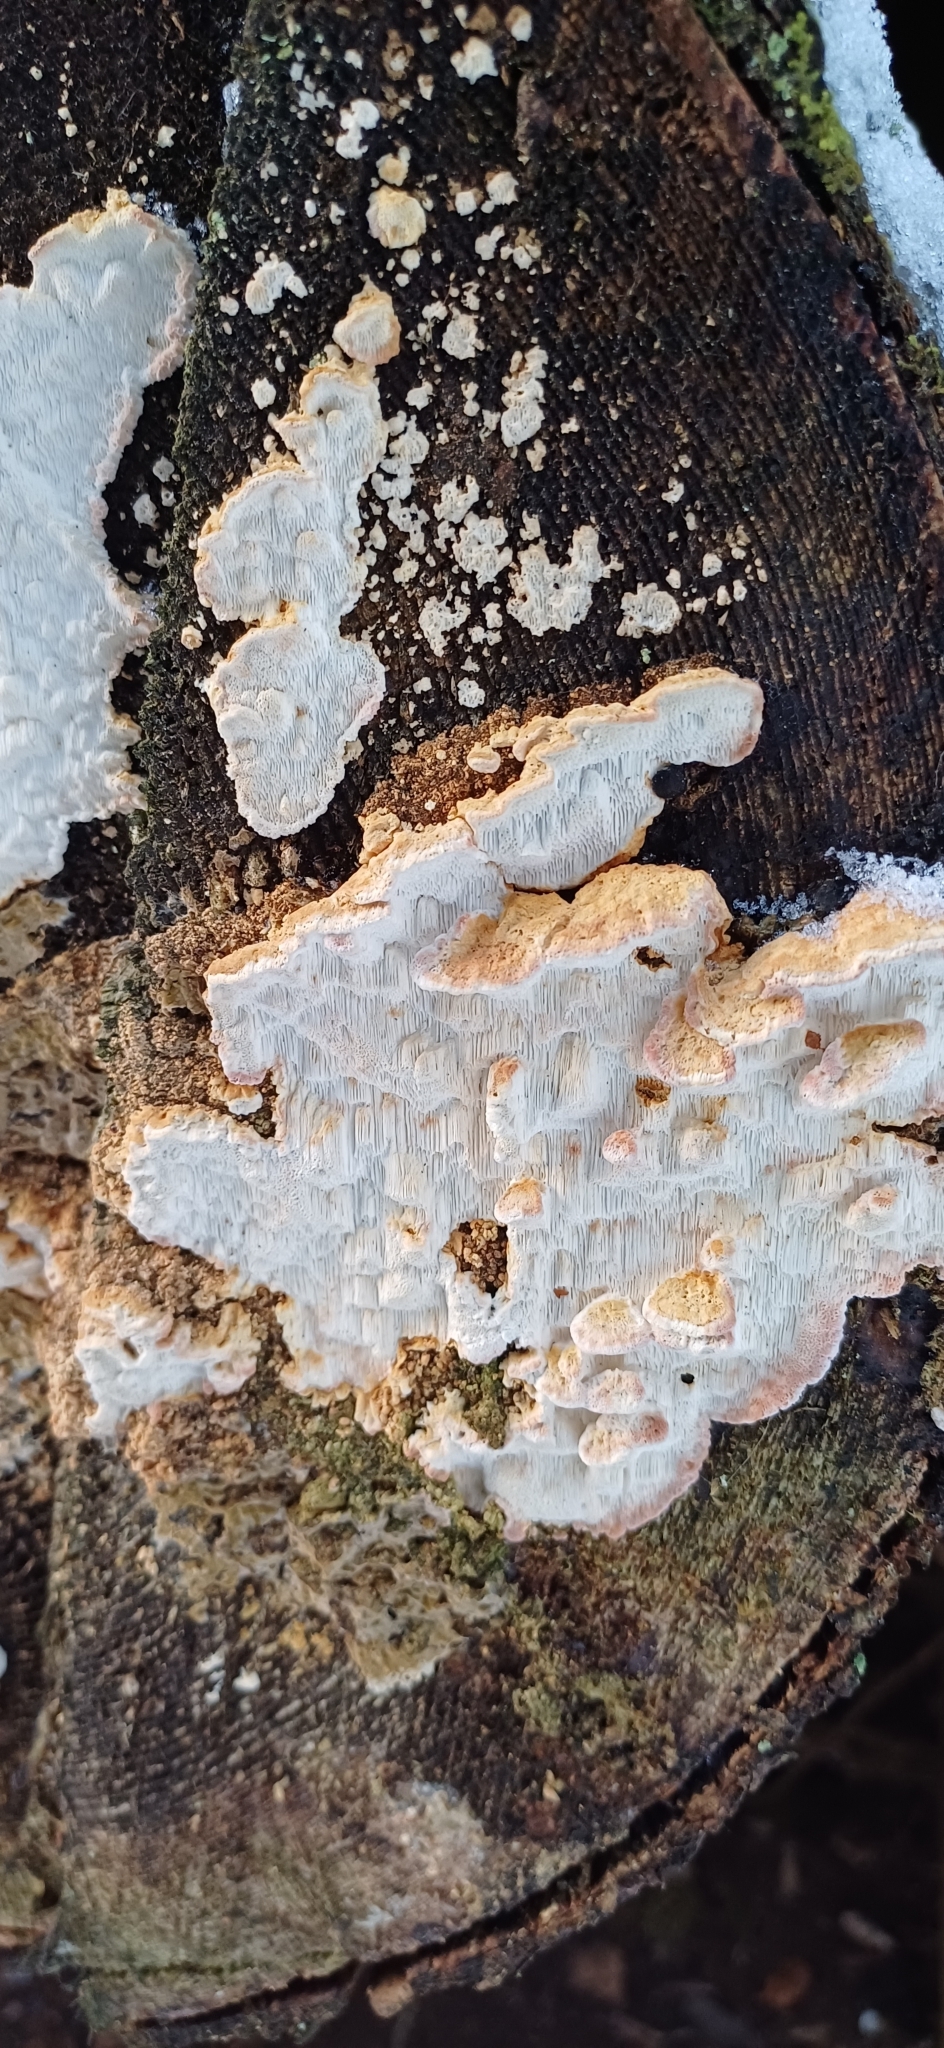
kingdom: Fungi
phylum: Basidiomycota
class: Agaricomycetes
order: Polyporales
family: Fomitopsidaceae
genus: Neoantrodia
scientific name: Neoantrodia serialis
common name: Serried porecrust
